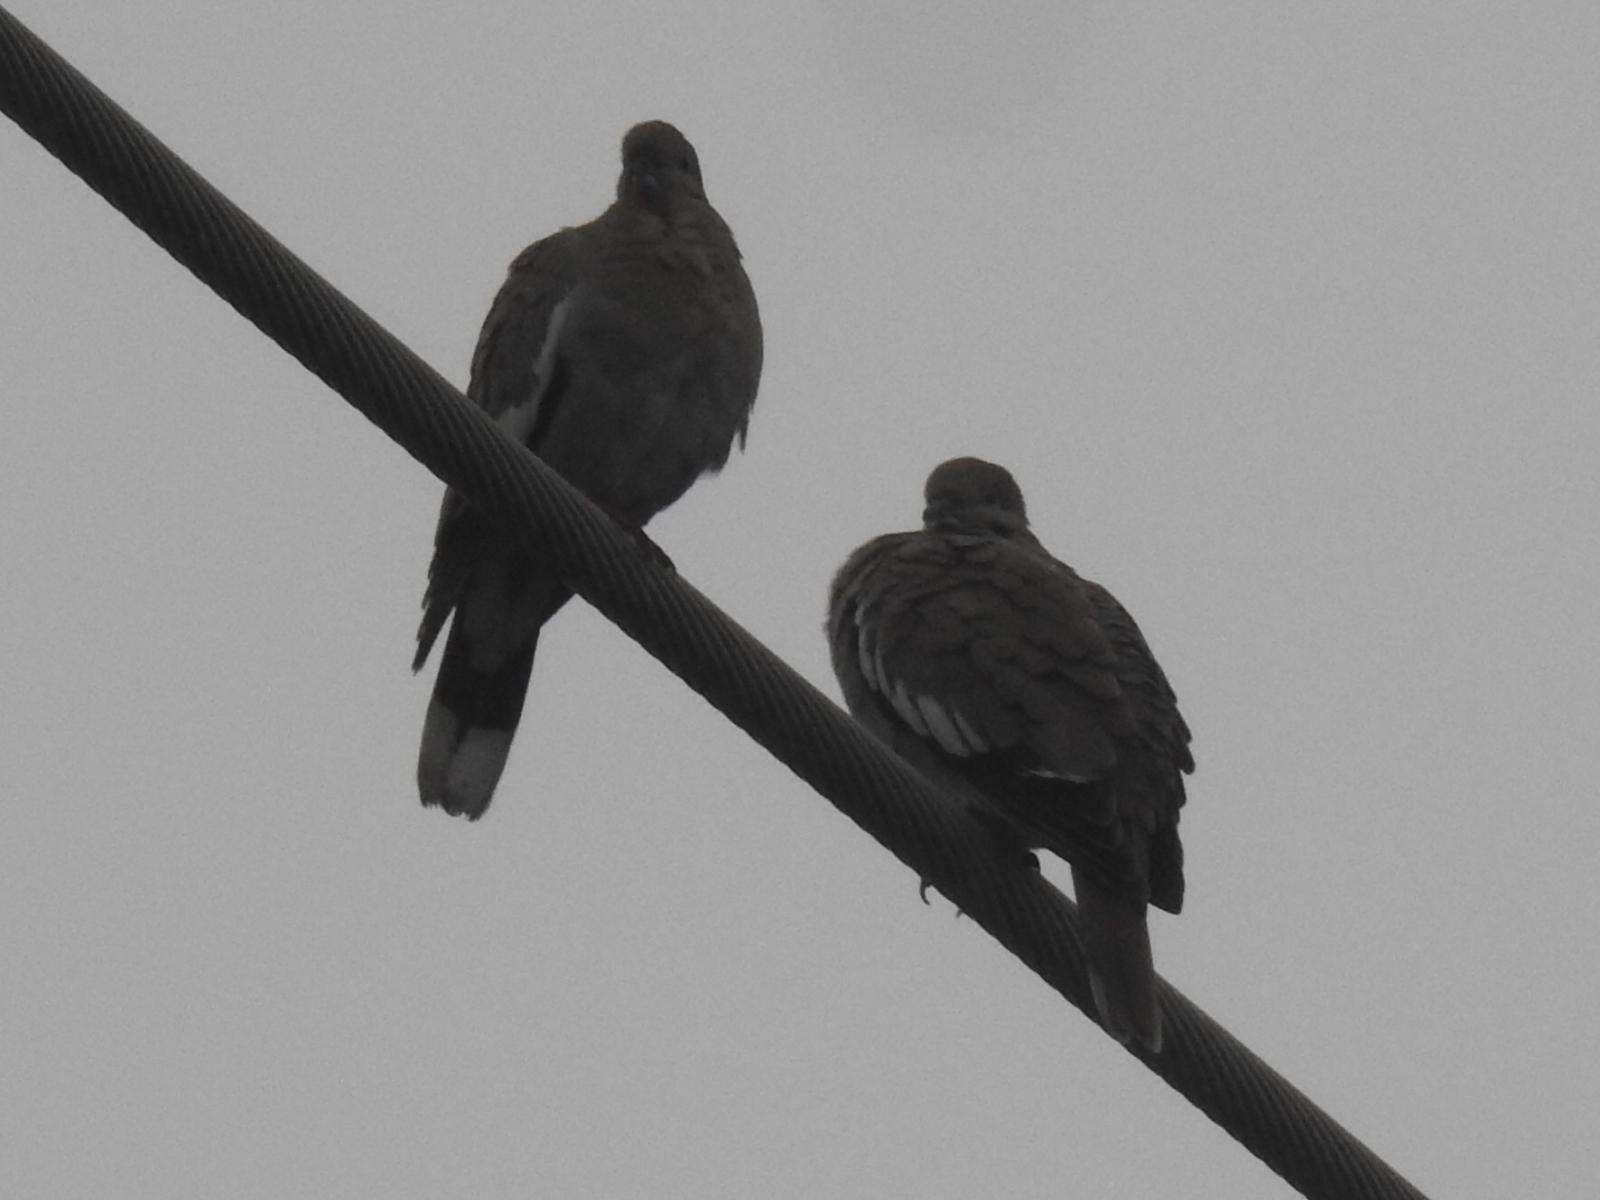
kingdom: Animalia
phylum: Chordata
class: Aves
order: Columbiformes
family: Columbidae
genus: Zenaida
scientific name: Zenaida asiatica
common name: White-winged dove
